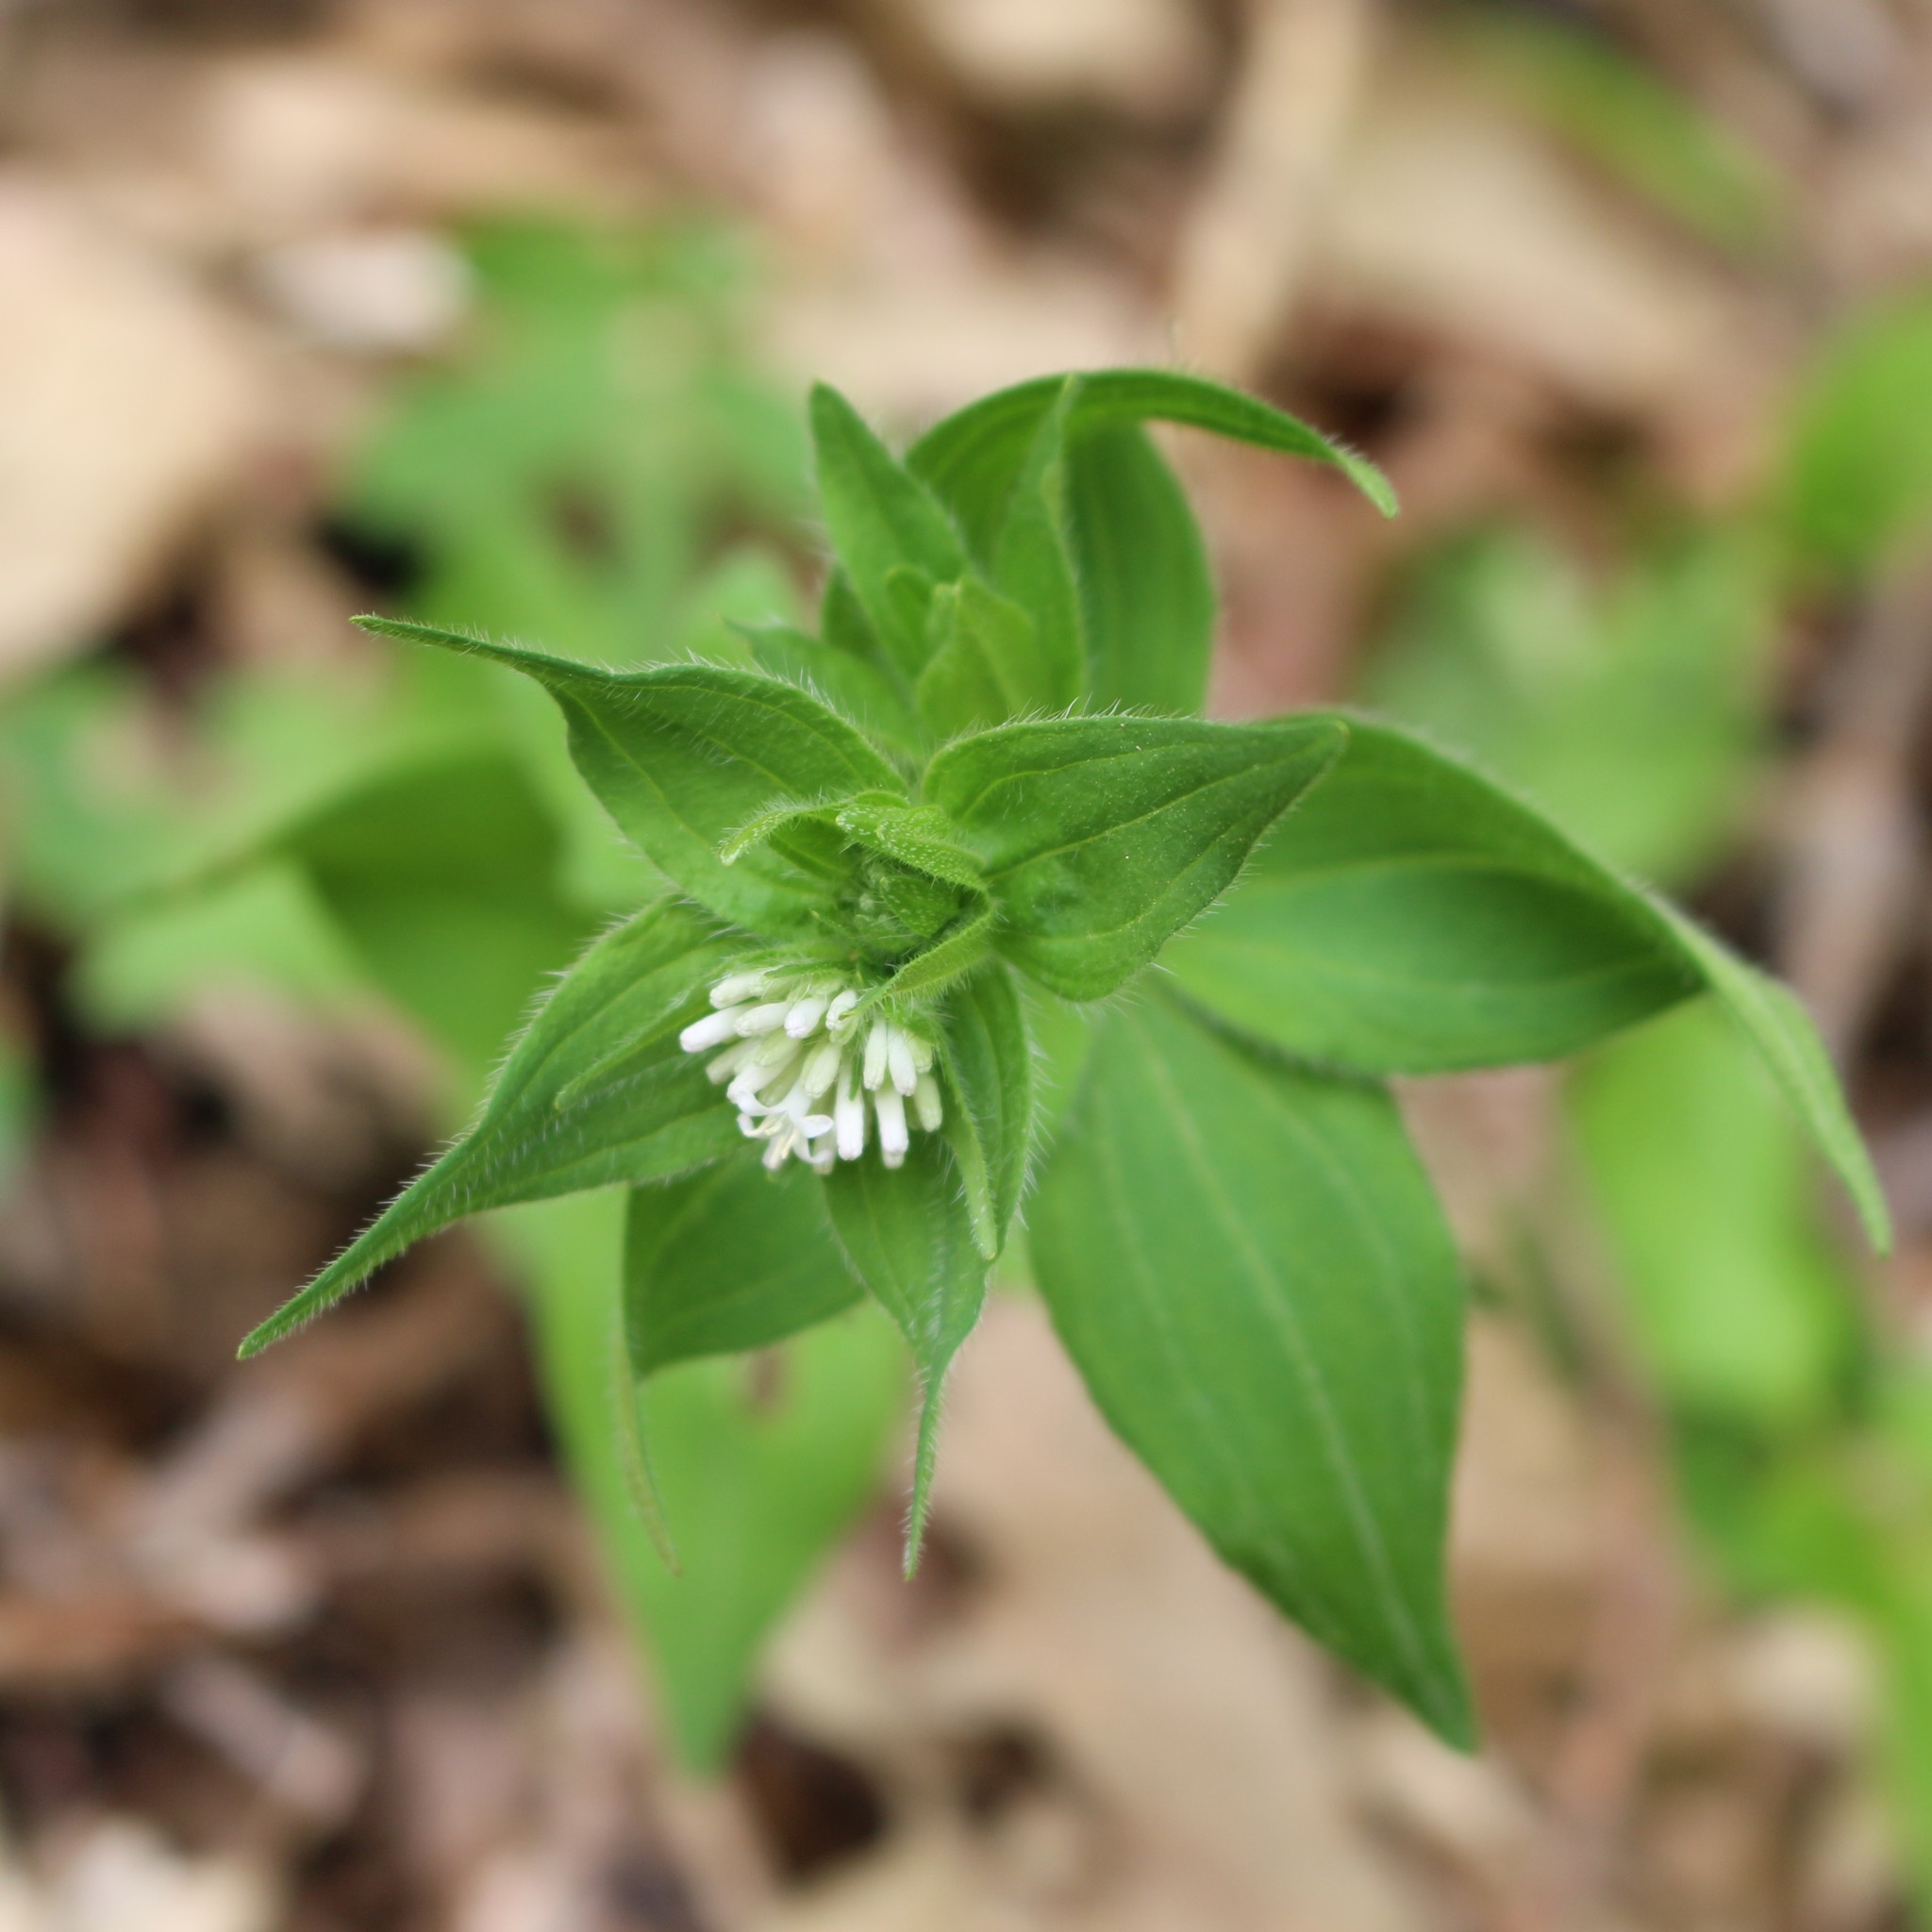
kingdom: Plantae
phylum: Tracheophyta
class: Magnoliopsida
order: Gentianales
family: Rubiaceae
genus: Asperula
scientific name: Asperula taurina
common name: Pink woodruff
